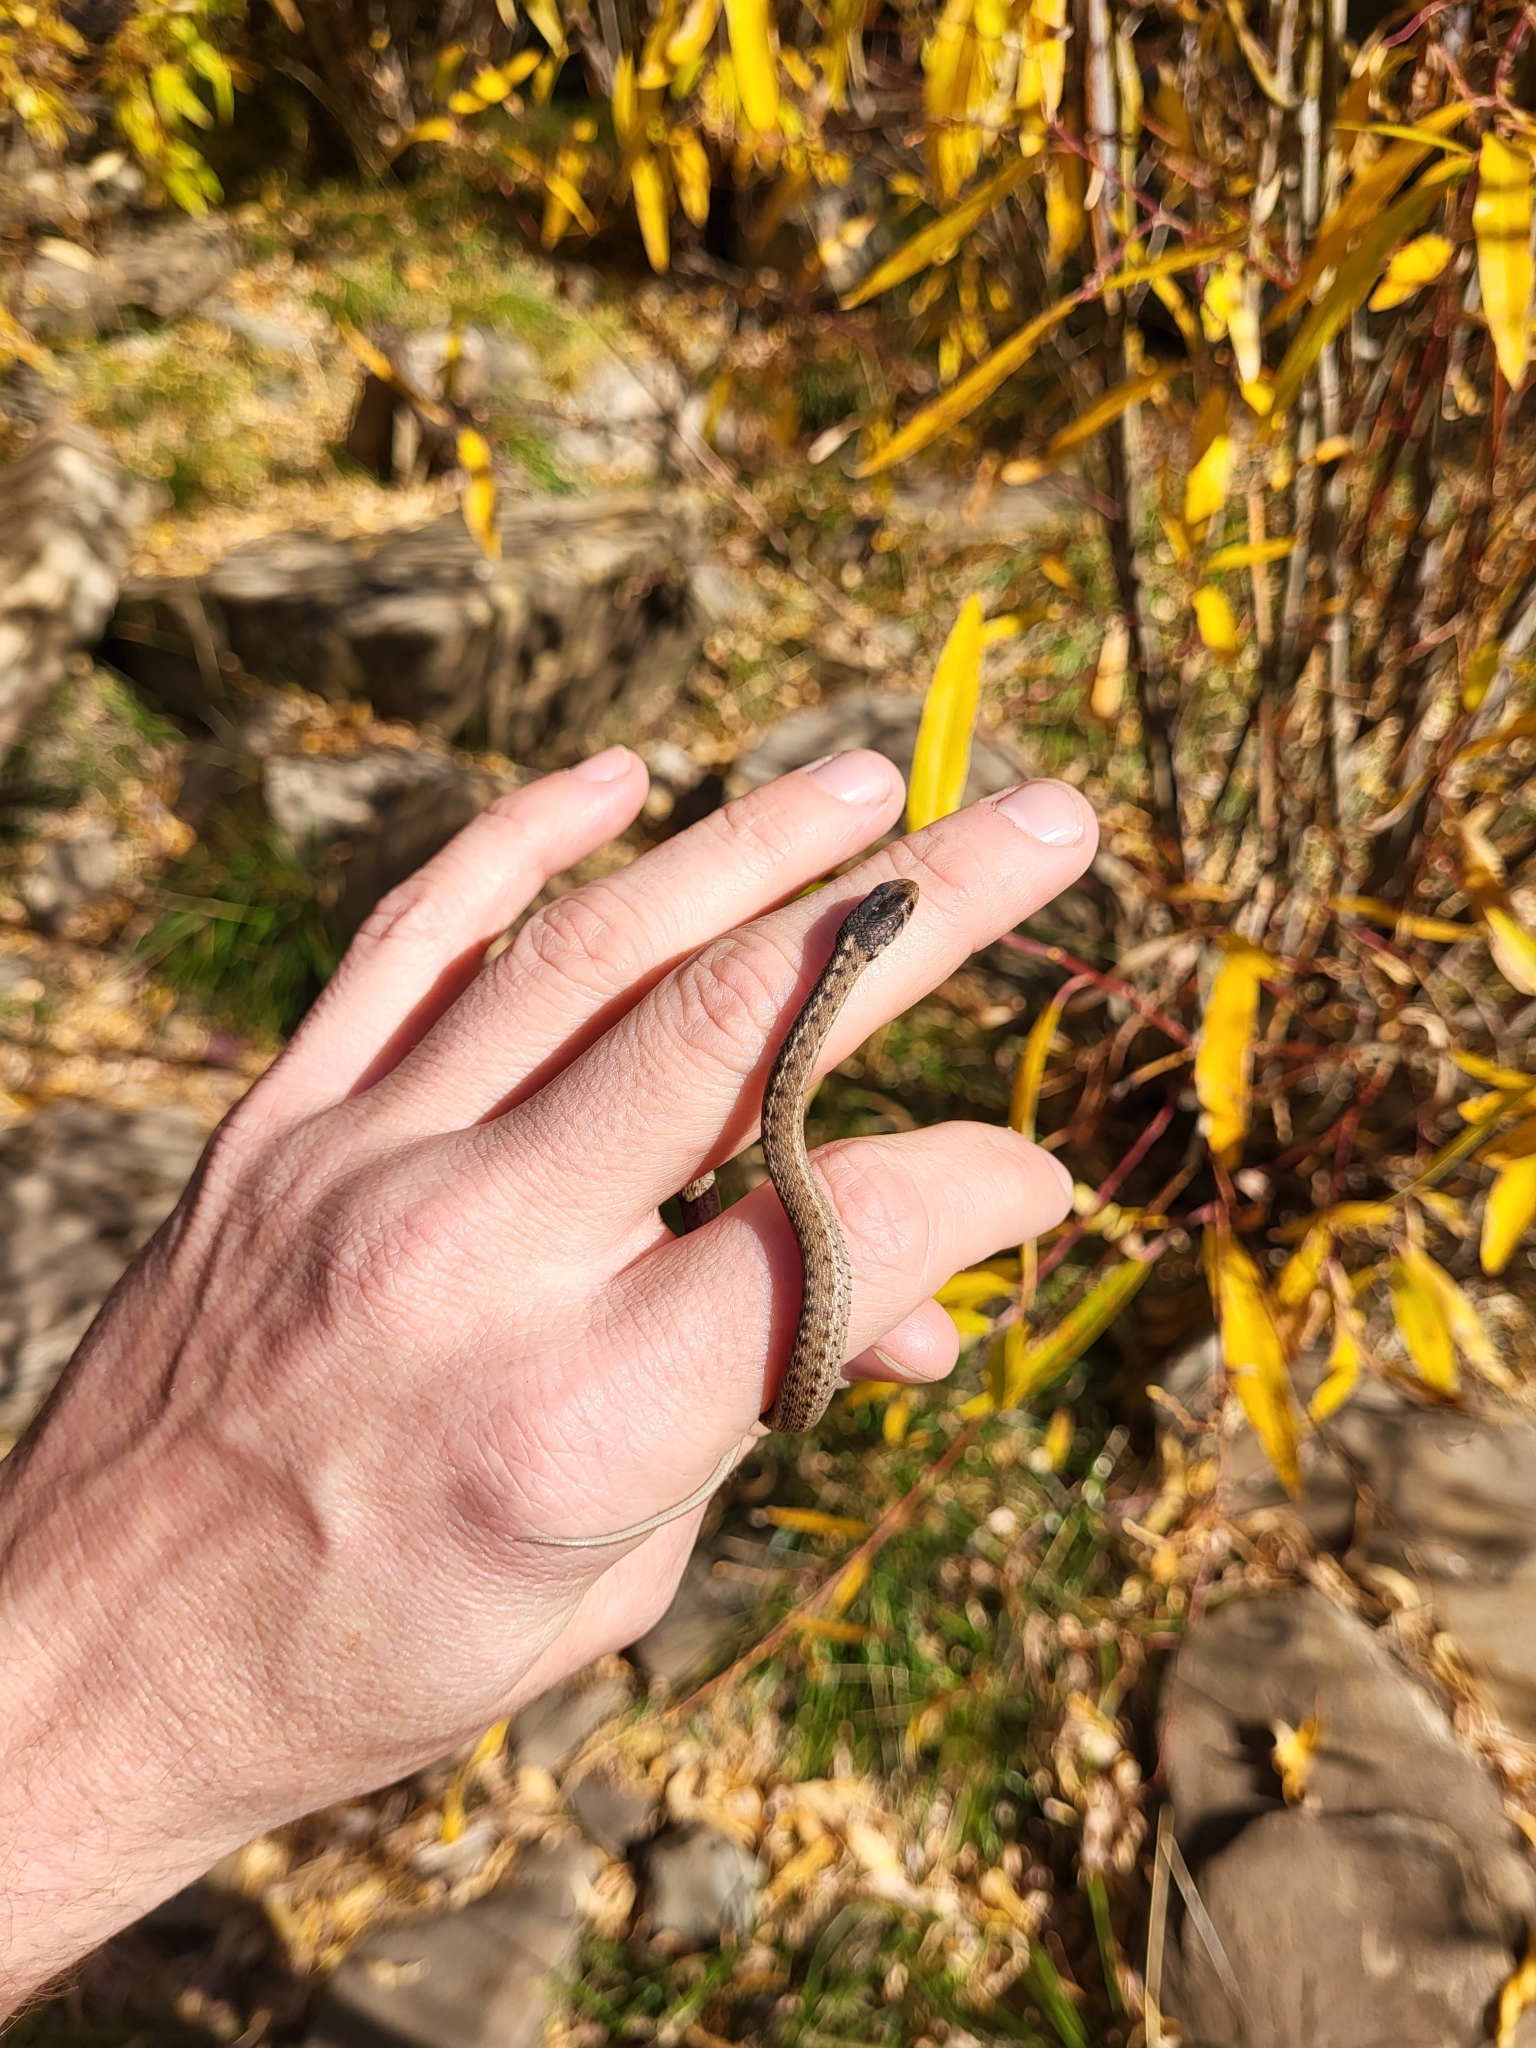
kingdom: Animalia
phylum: Chordata
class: Squamata
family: Colubridae
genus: Thamnophis
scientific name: Thamnophis elegans
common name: Western terrestrial garter snake
